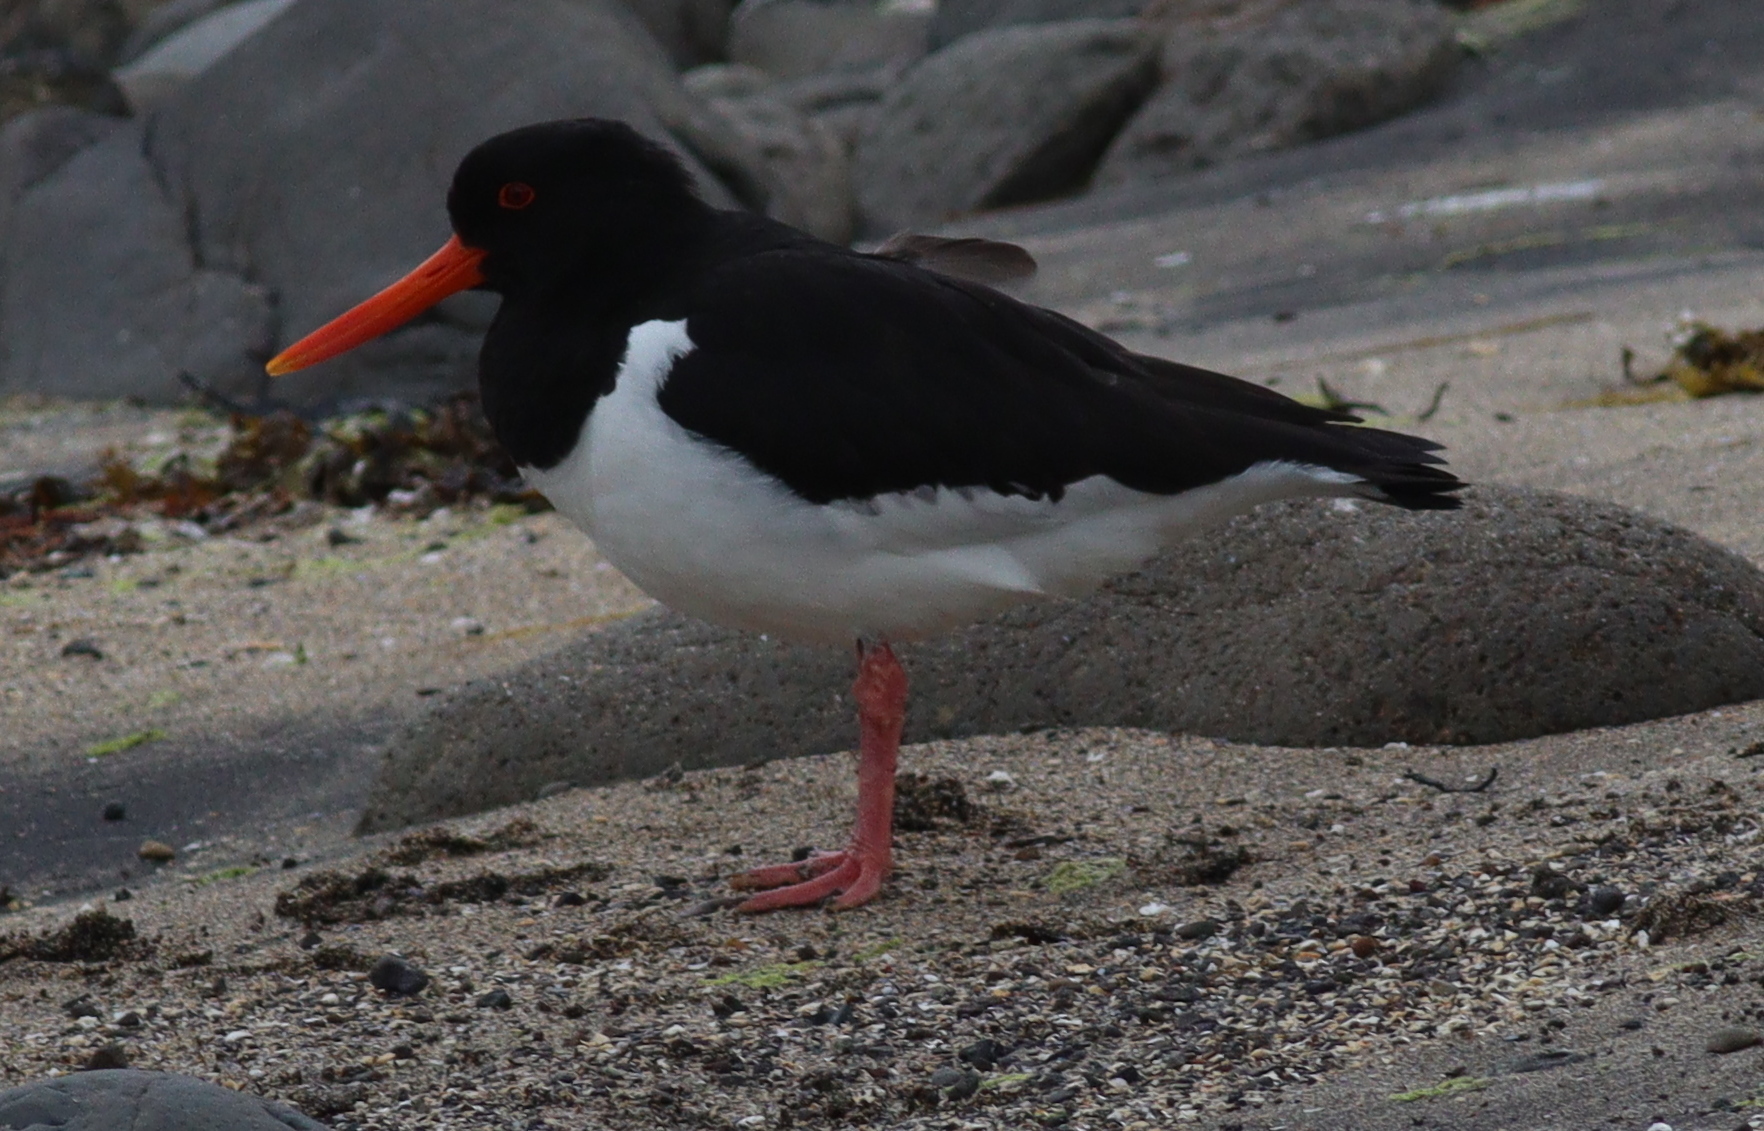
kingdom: Animalia
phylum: Chordata
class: Aves
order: Charadriiformes
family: Haematopodidae
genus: Haematopus
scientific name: Haematopus ostralegus
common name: Eurasian oystercatcher
